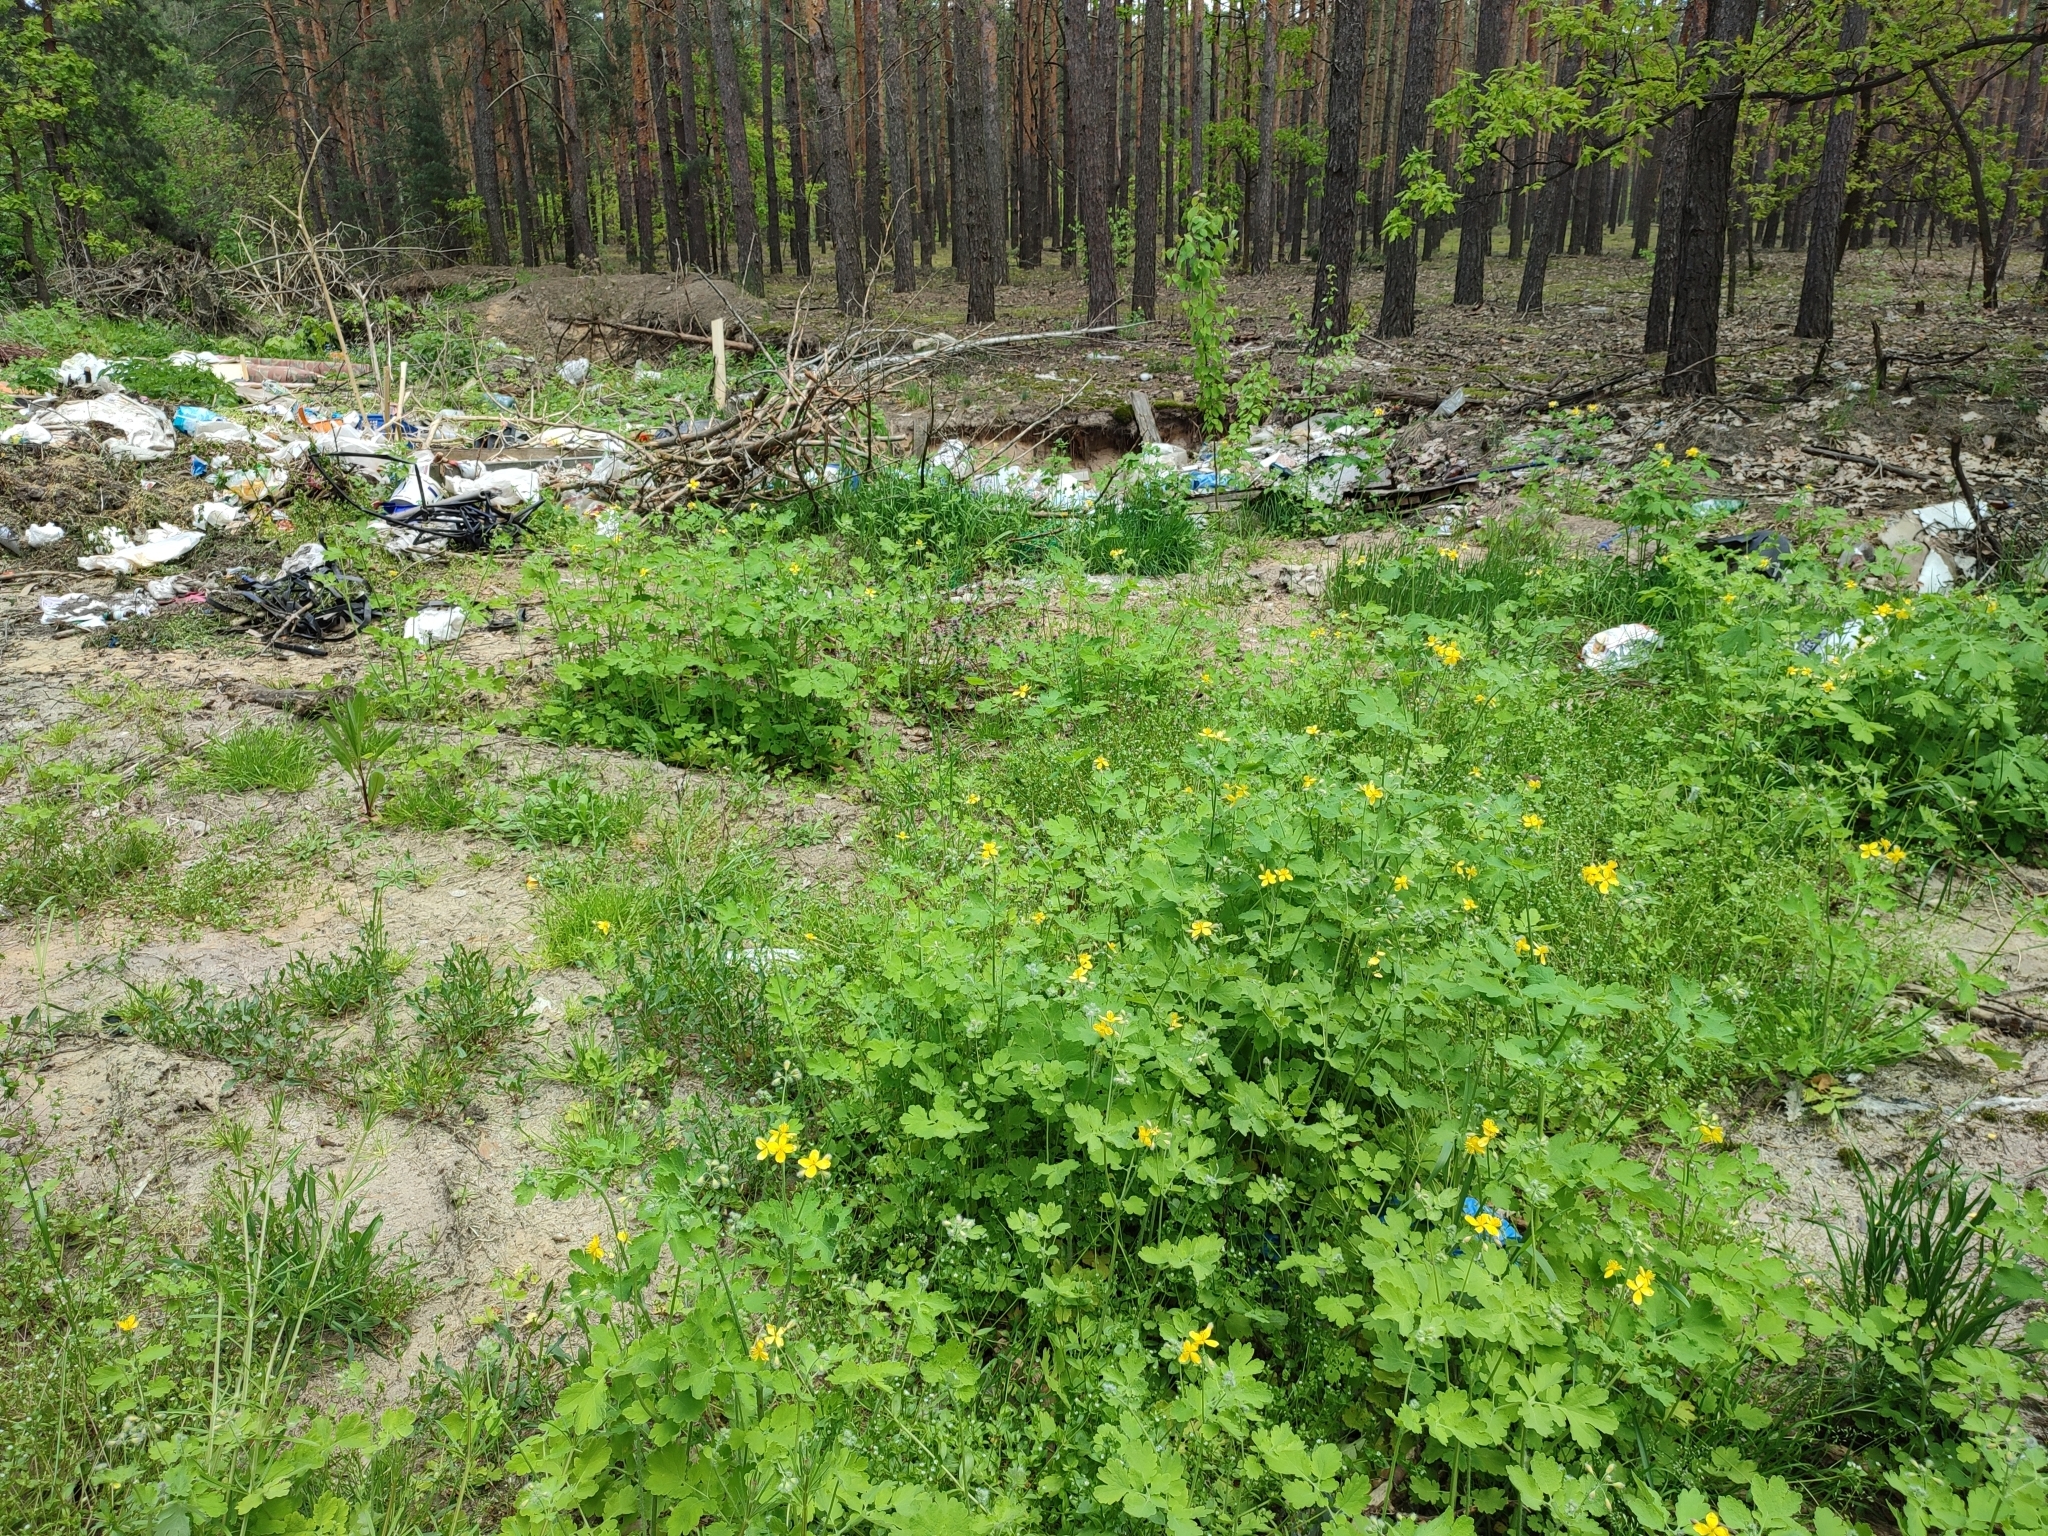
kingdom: Plantae
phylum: Tracheophyta
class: Magnoliopsida
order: Ranunculales
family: Papaveraceae
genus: Chelidonium
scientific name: Chelidonium majus
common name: Greater celandine
